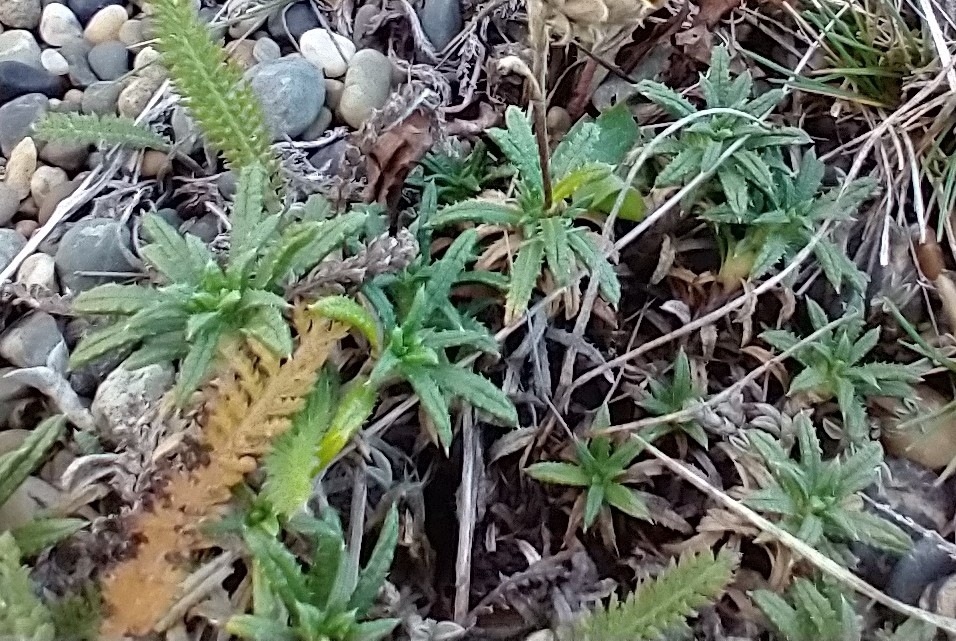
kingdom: Plantae
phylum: Tracheophyta
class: Magnoliopsida
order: Asterales
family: Asteraceae
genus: Perezia
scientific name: Perezia recurvata
